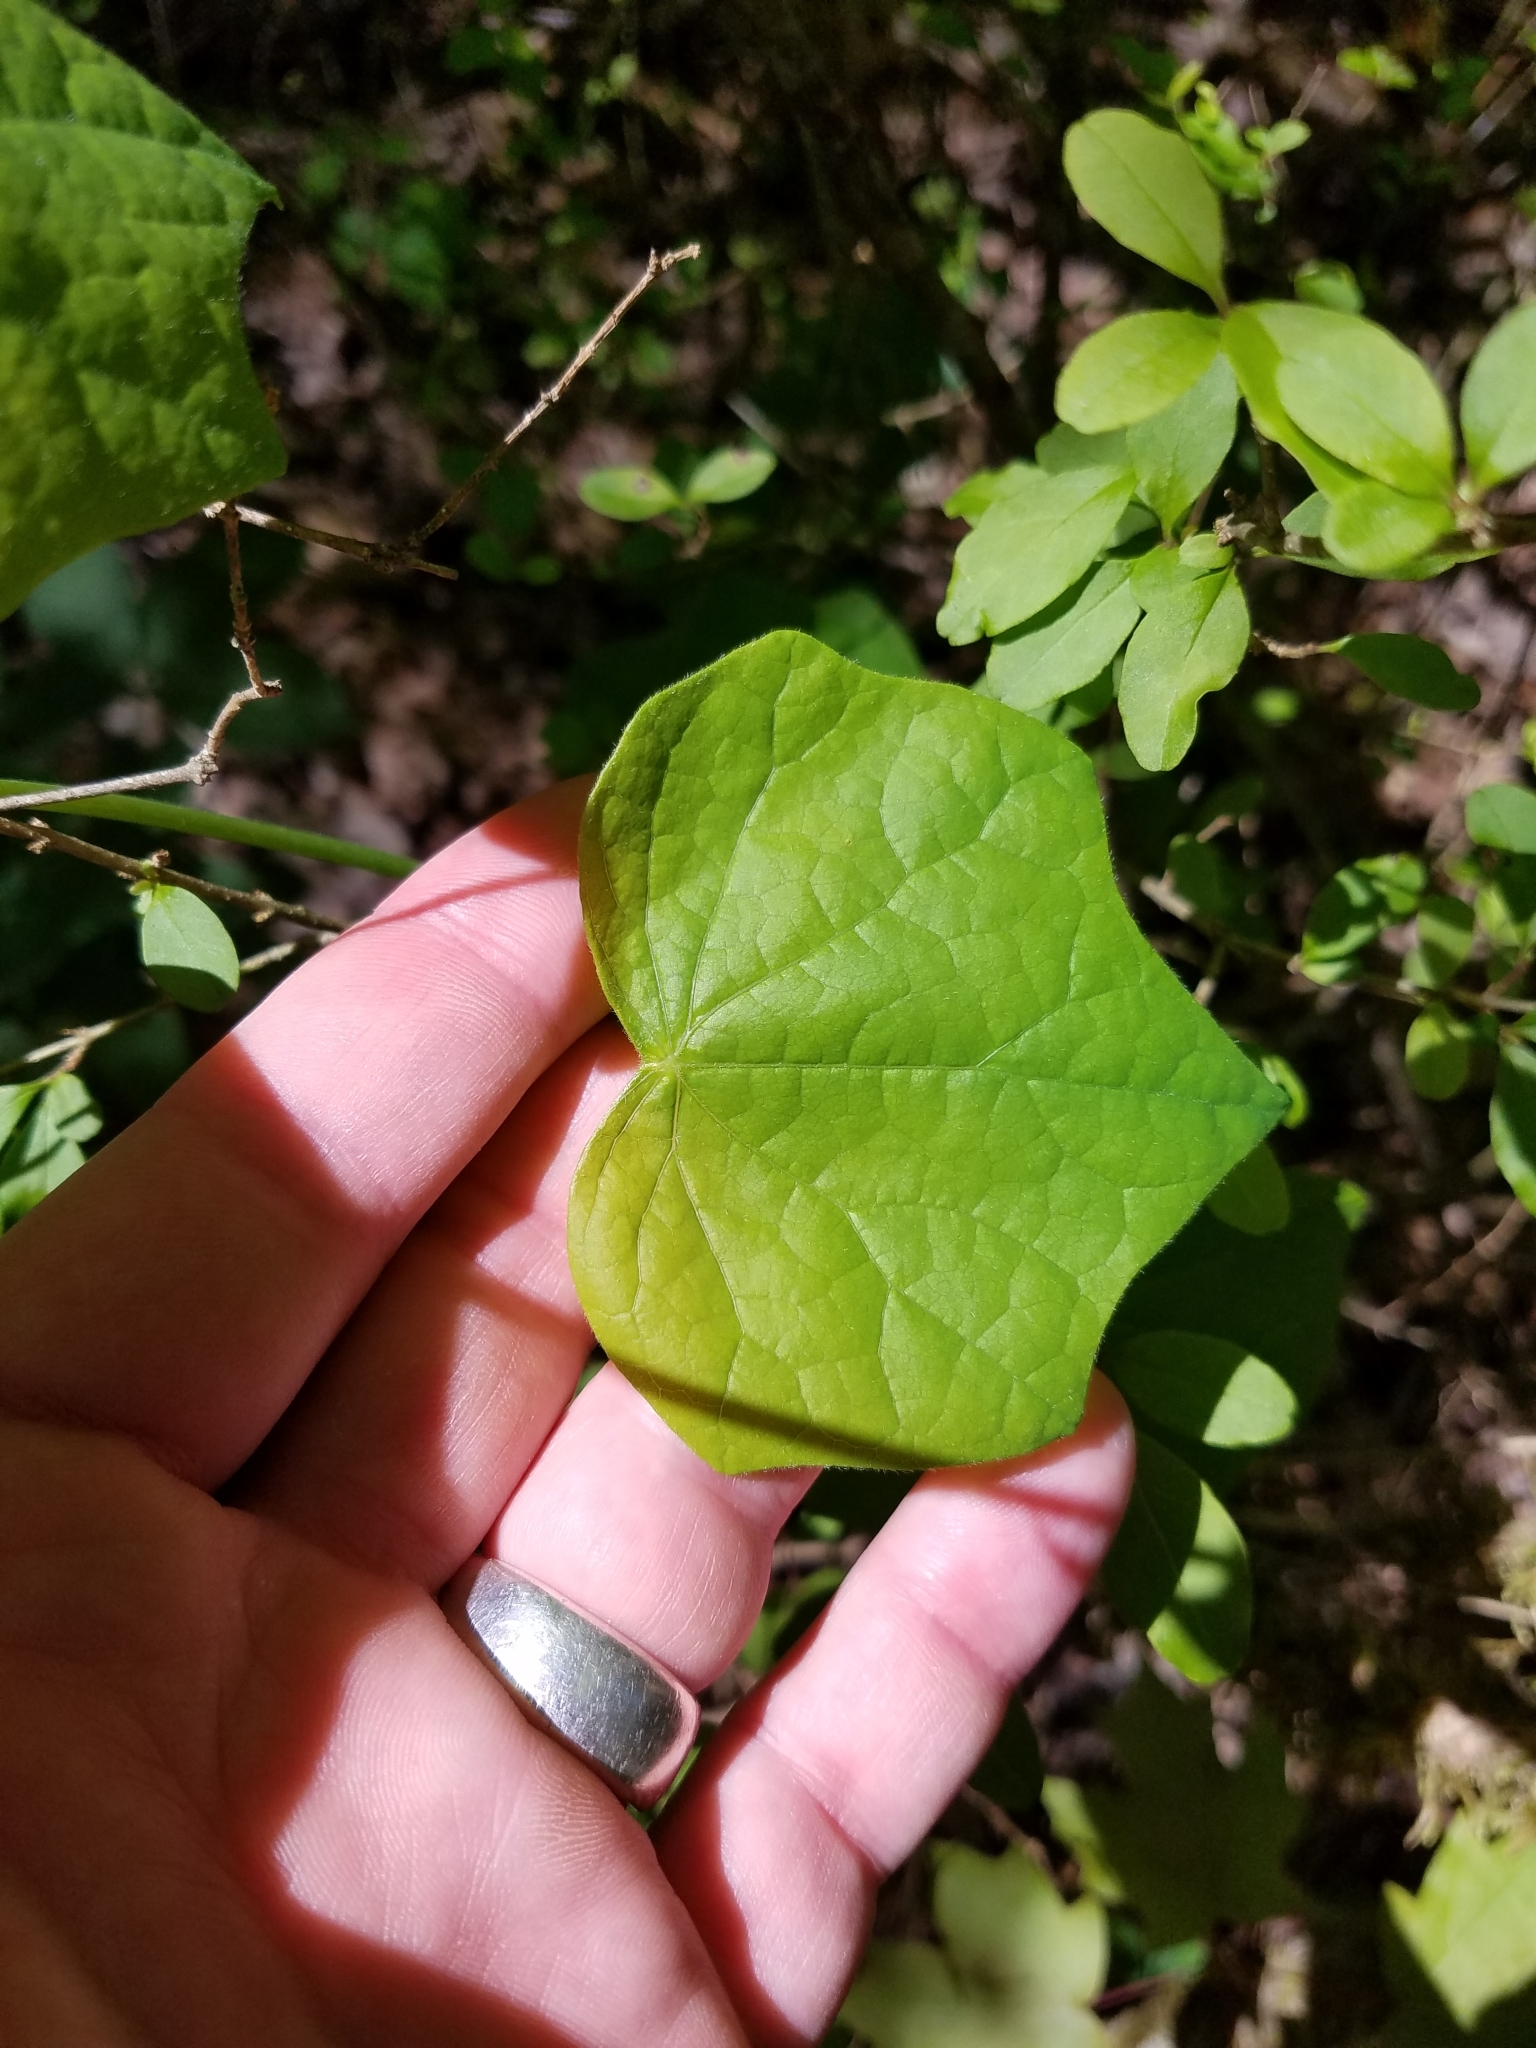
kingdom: Plantae
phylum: Tracheophyta
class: Magnoliopsida
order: Ranunculales
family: Menispermaceae
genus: Menispermum
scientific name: Menispermum canadense
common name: Moonseed
